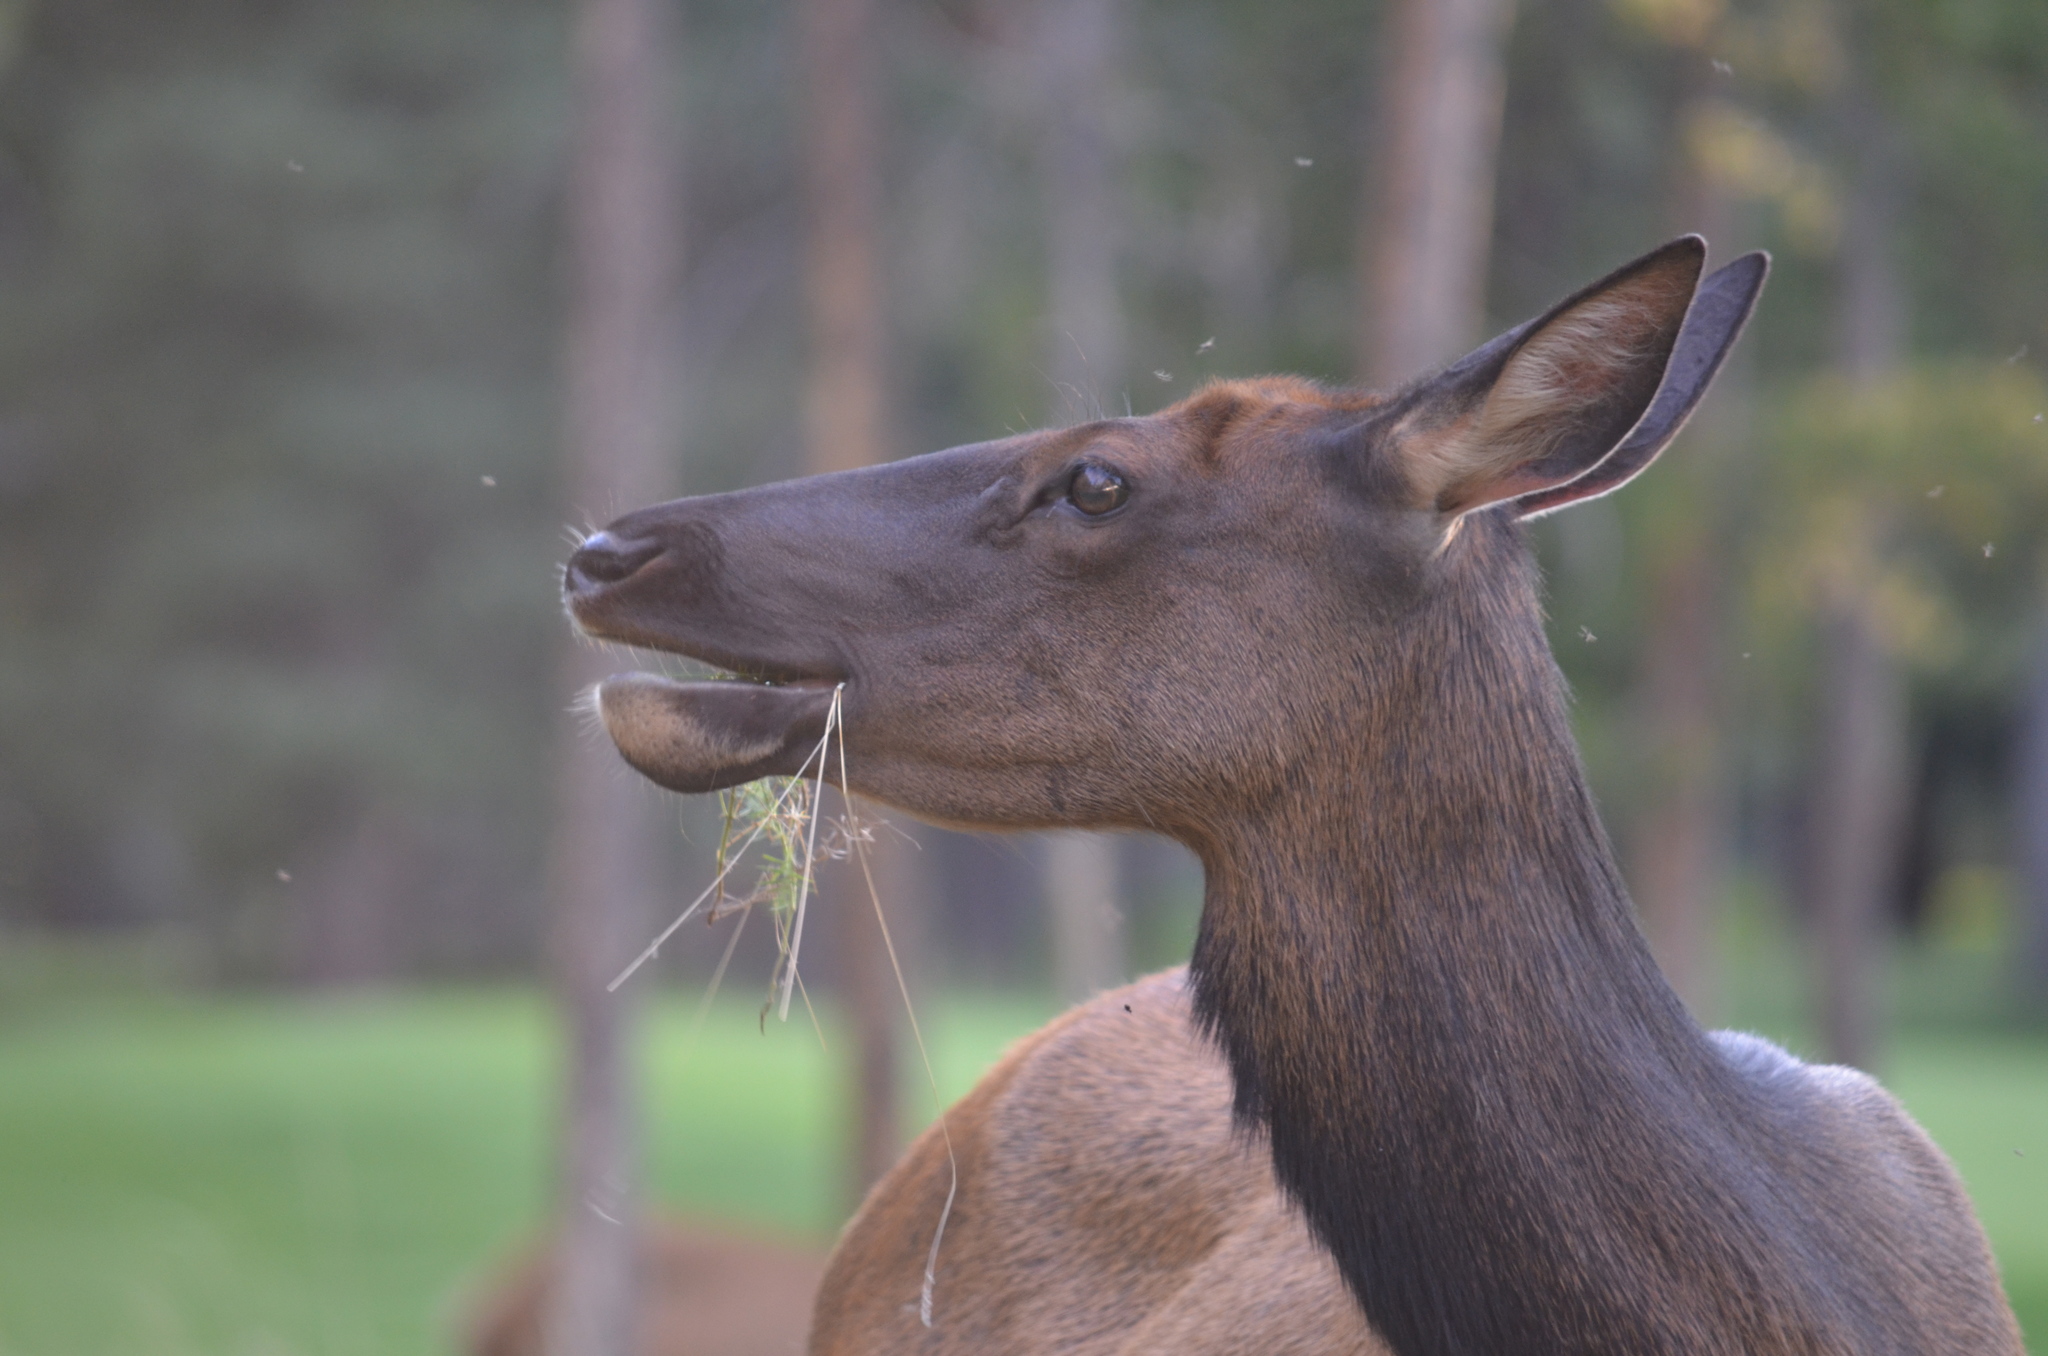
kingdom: Animalia
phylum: Chordata
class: Mammalia
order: Artiodactyla
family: Cervidae
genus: Cervus
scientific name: Cervus elaphus
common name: Red deer
